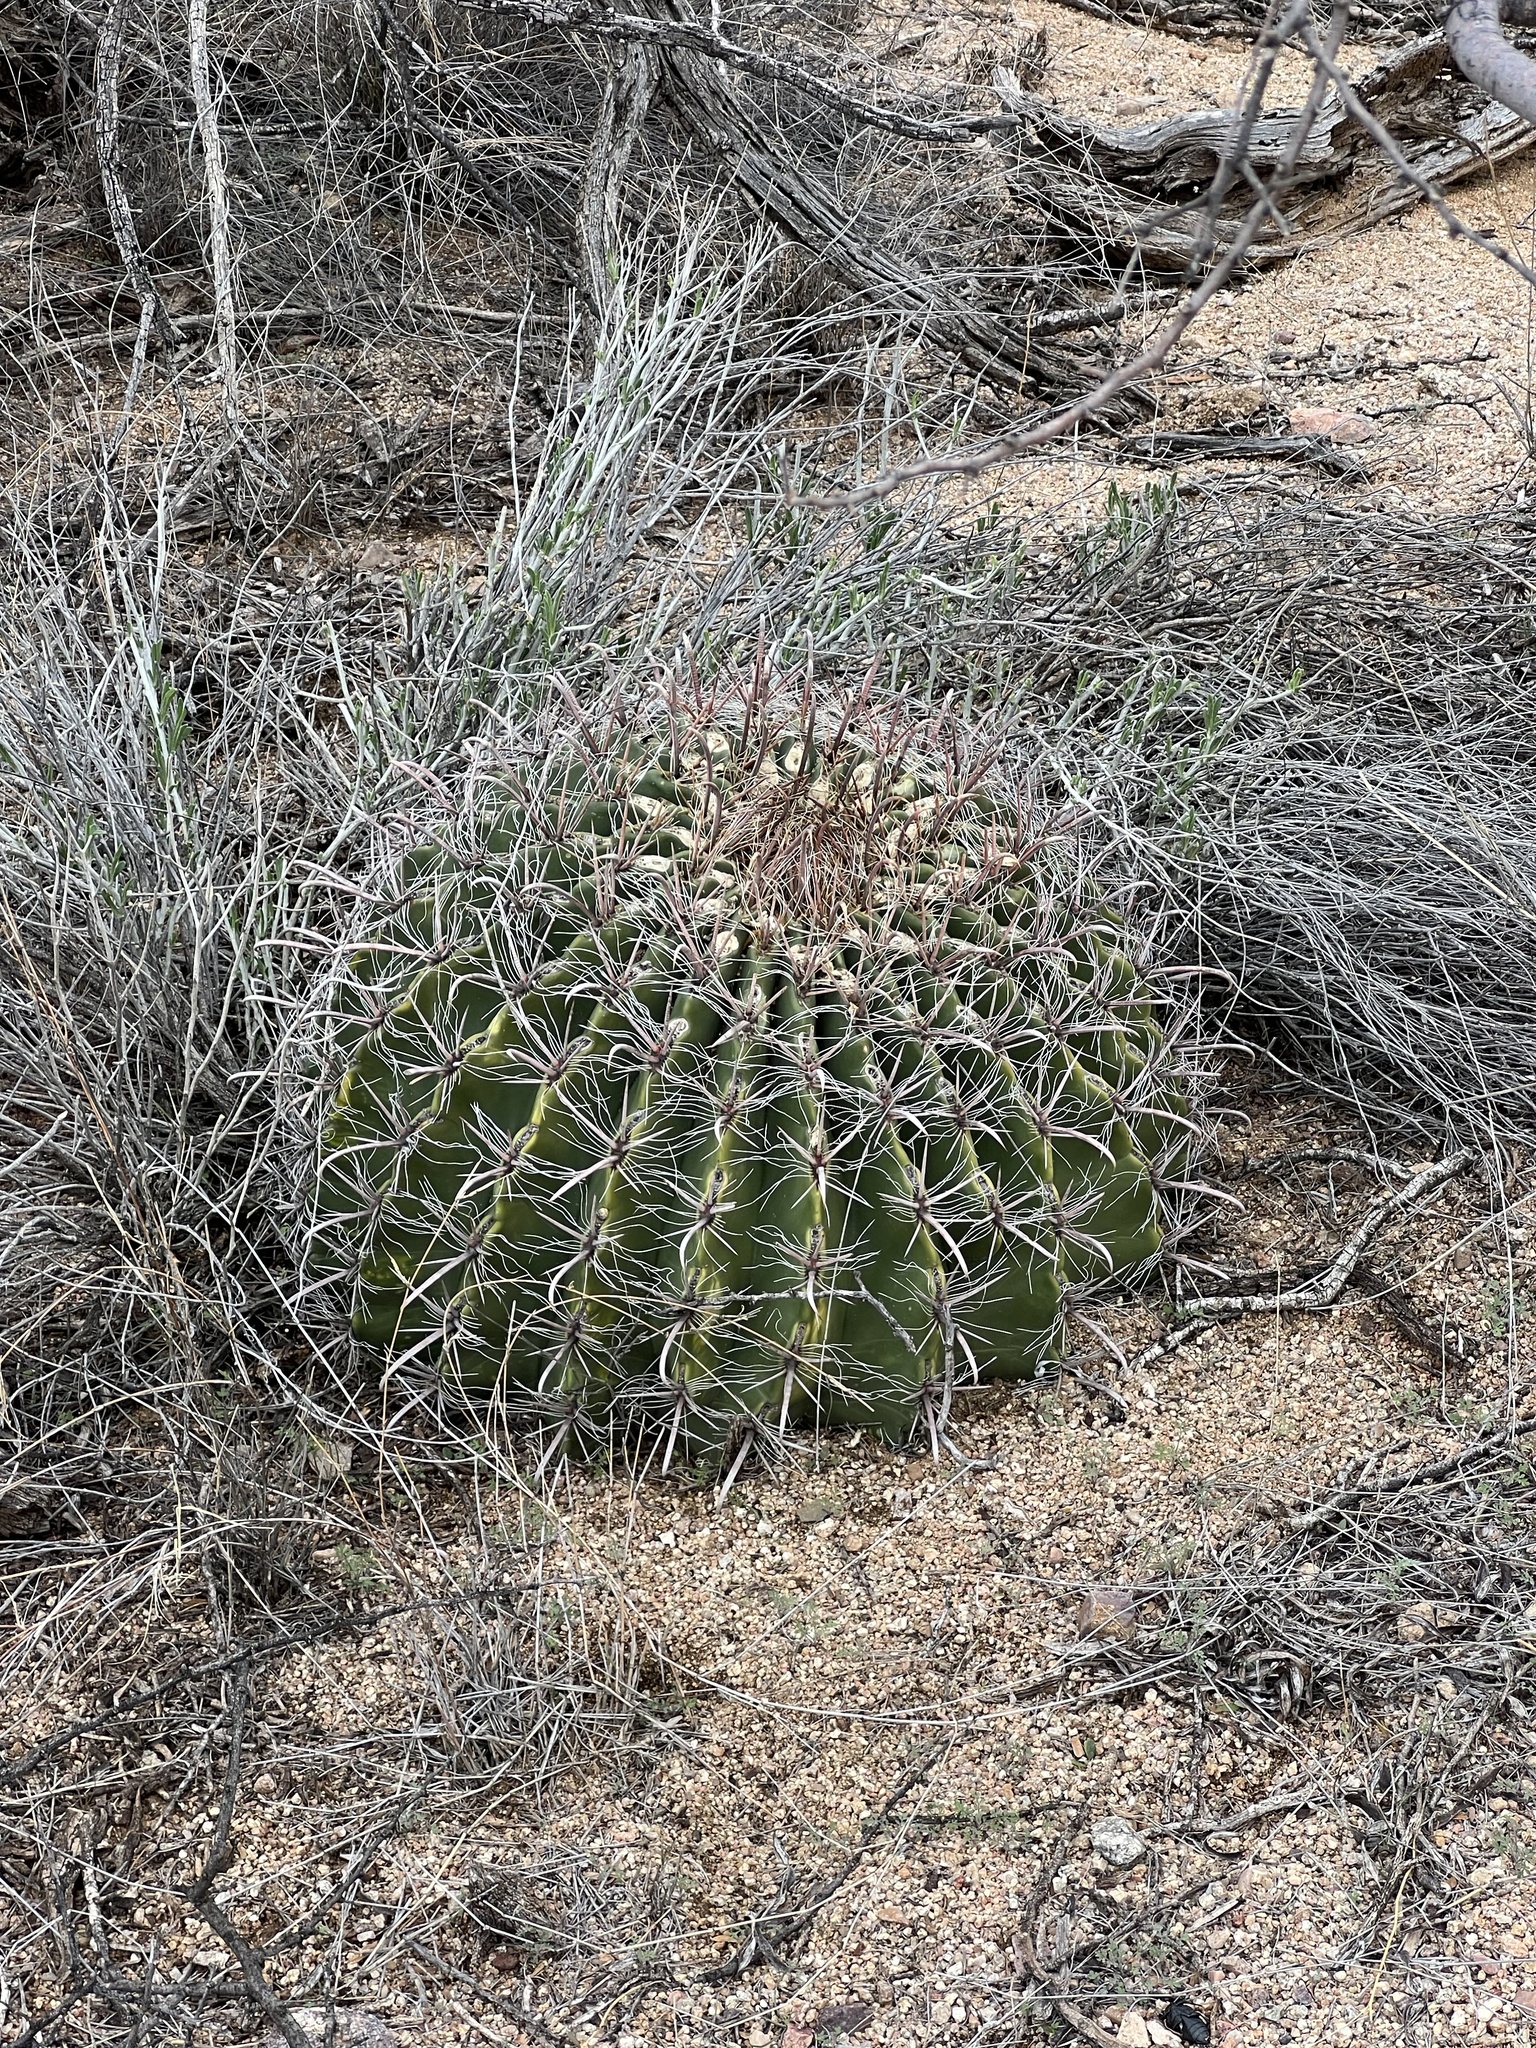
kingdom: Plantae
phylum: Tracheophyta
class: Magnoliopsida
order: Caryophyllales
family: Cactaceae
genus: Ferocactus
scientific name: Ferocactus wislizeni
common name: Candy barrel cactus
